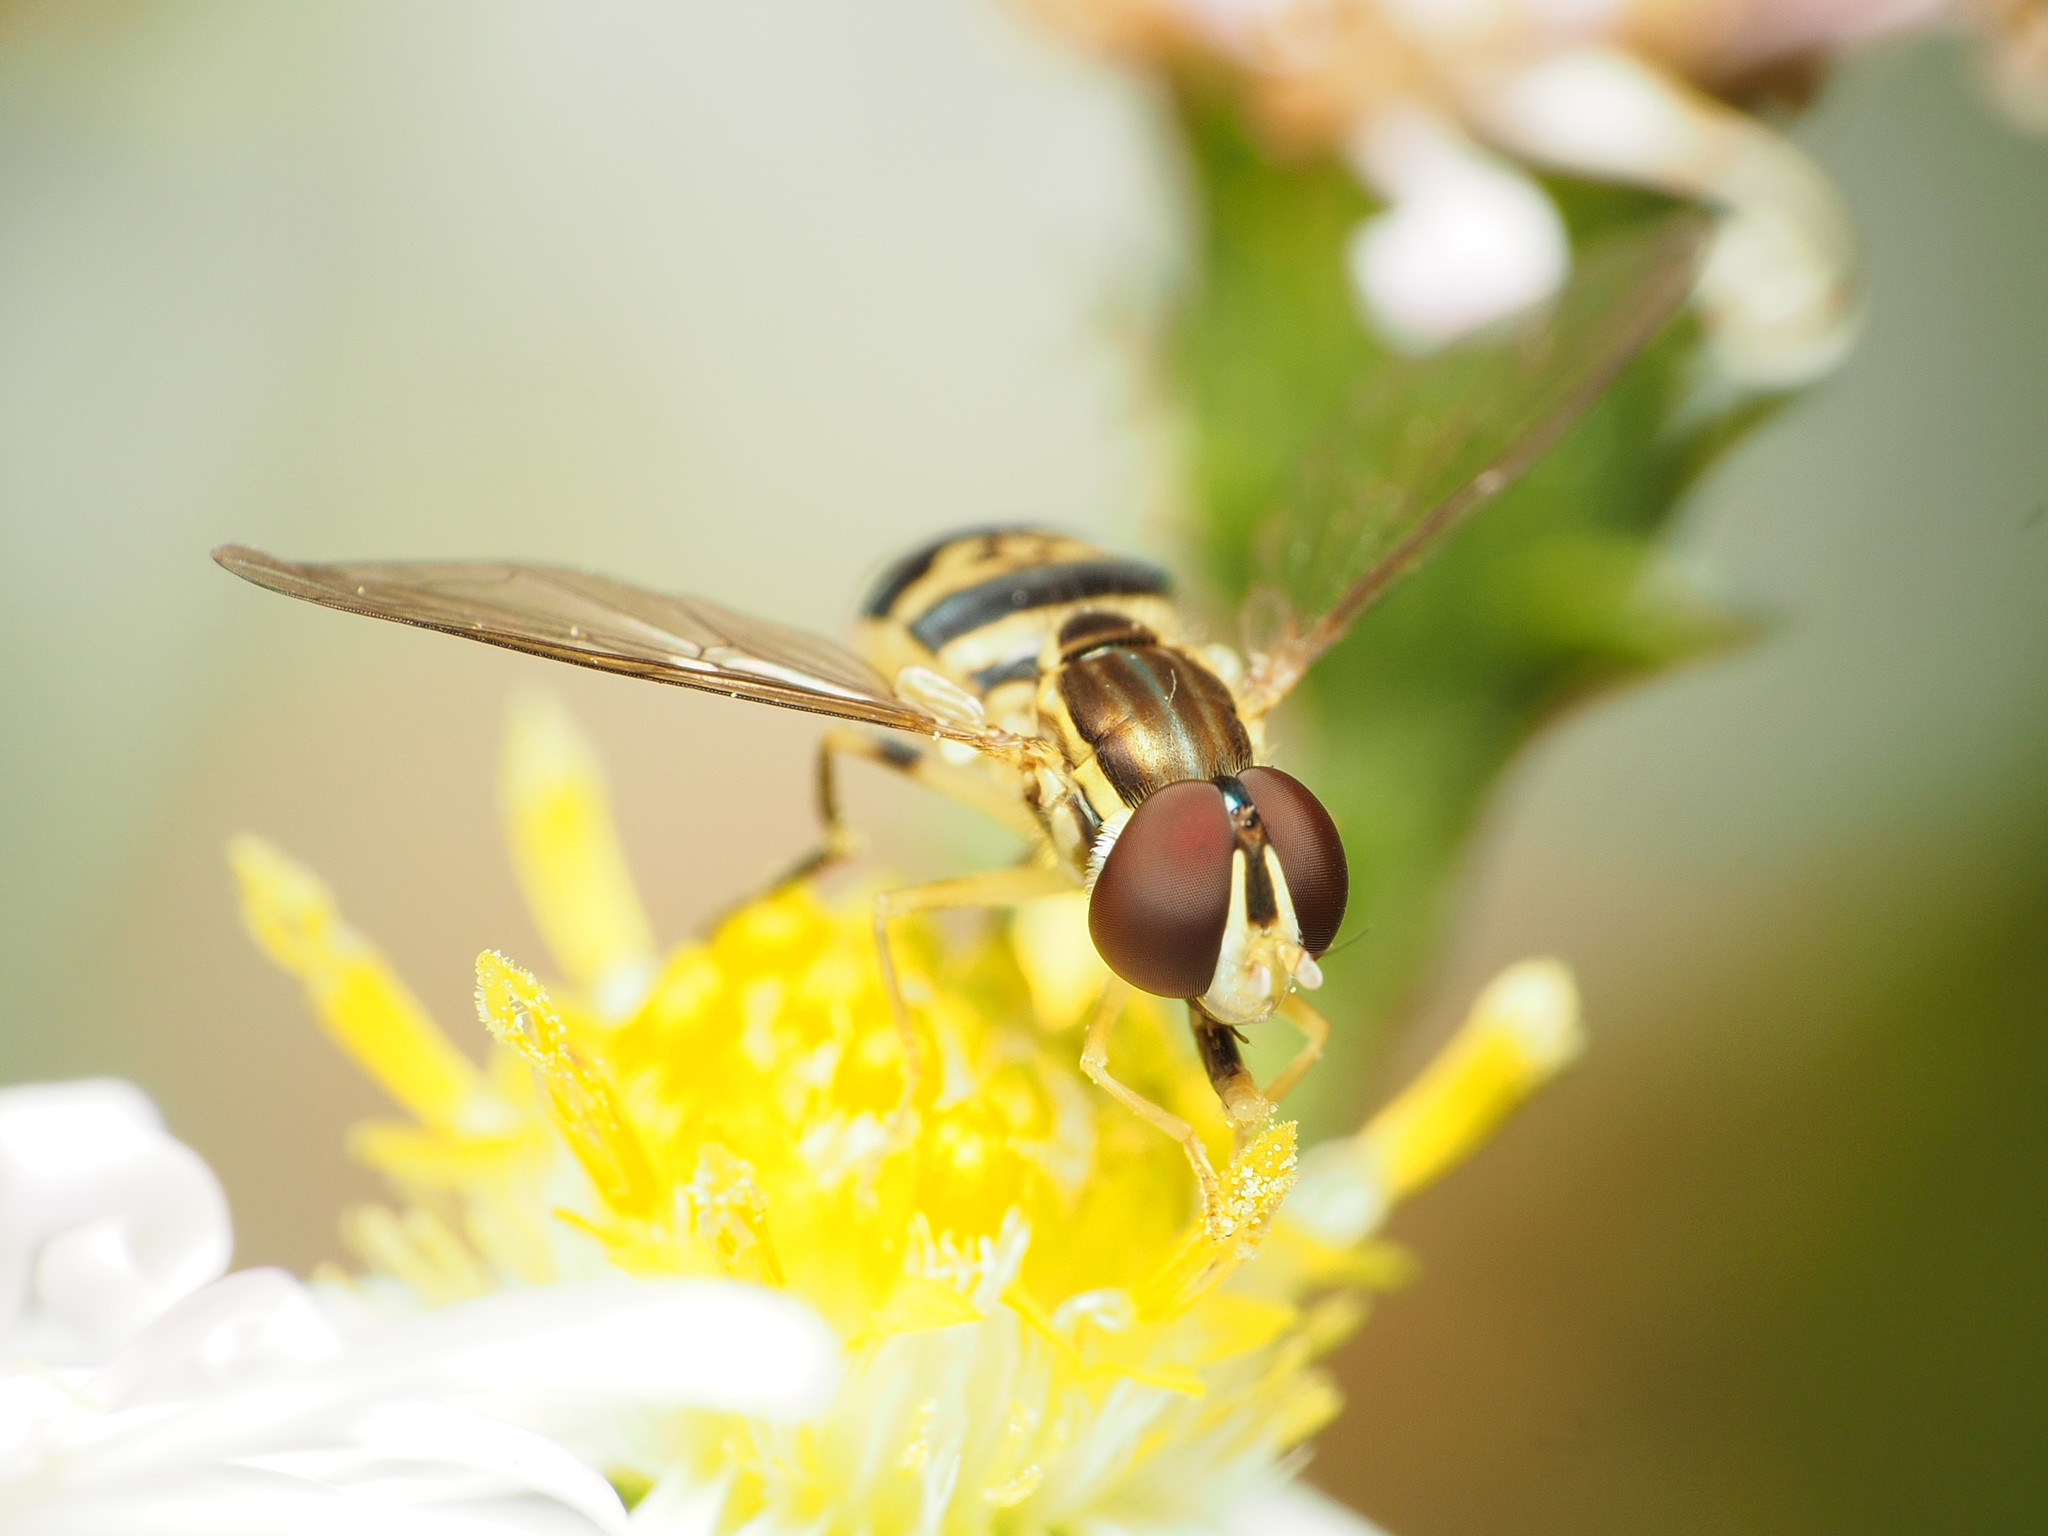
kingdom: Animalia
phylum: Arthropoda
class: Insecta
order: Diptera
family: Syrphidae
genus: Toxomerus
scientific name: Toxomerus geminatus
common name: Eastern calligrapher
